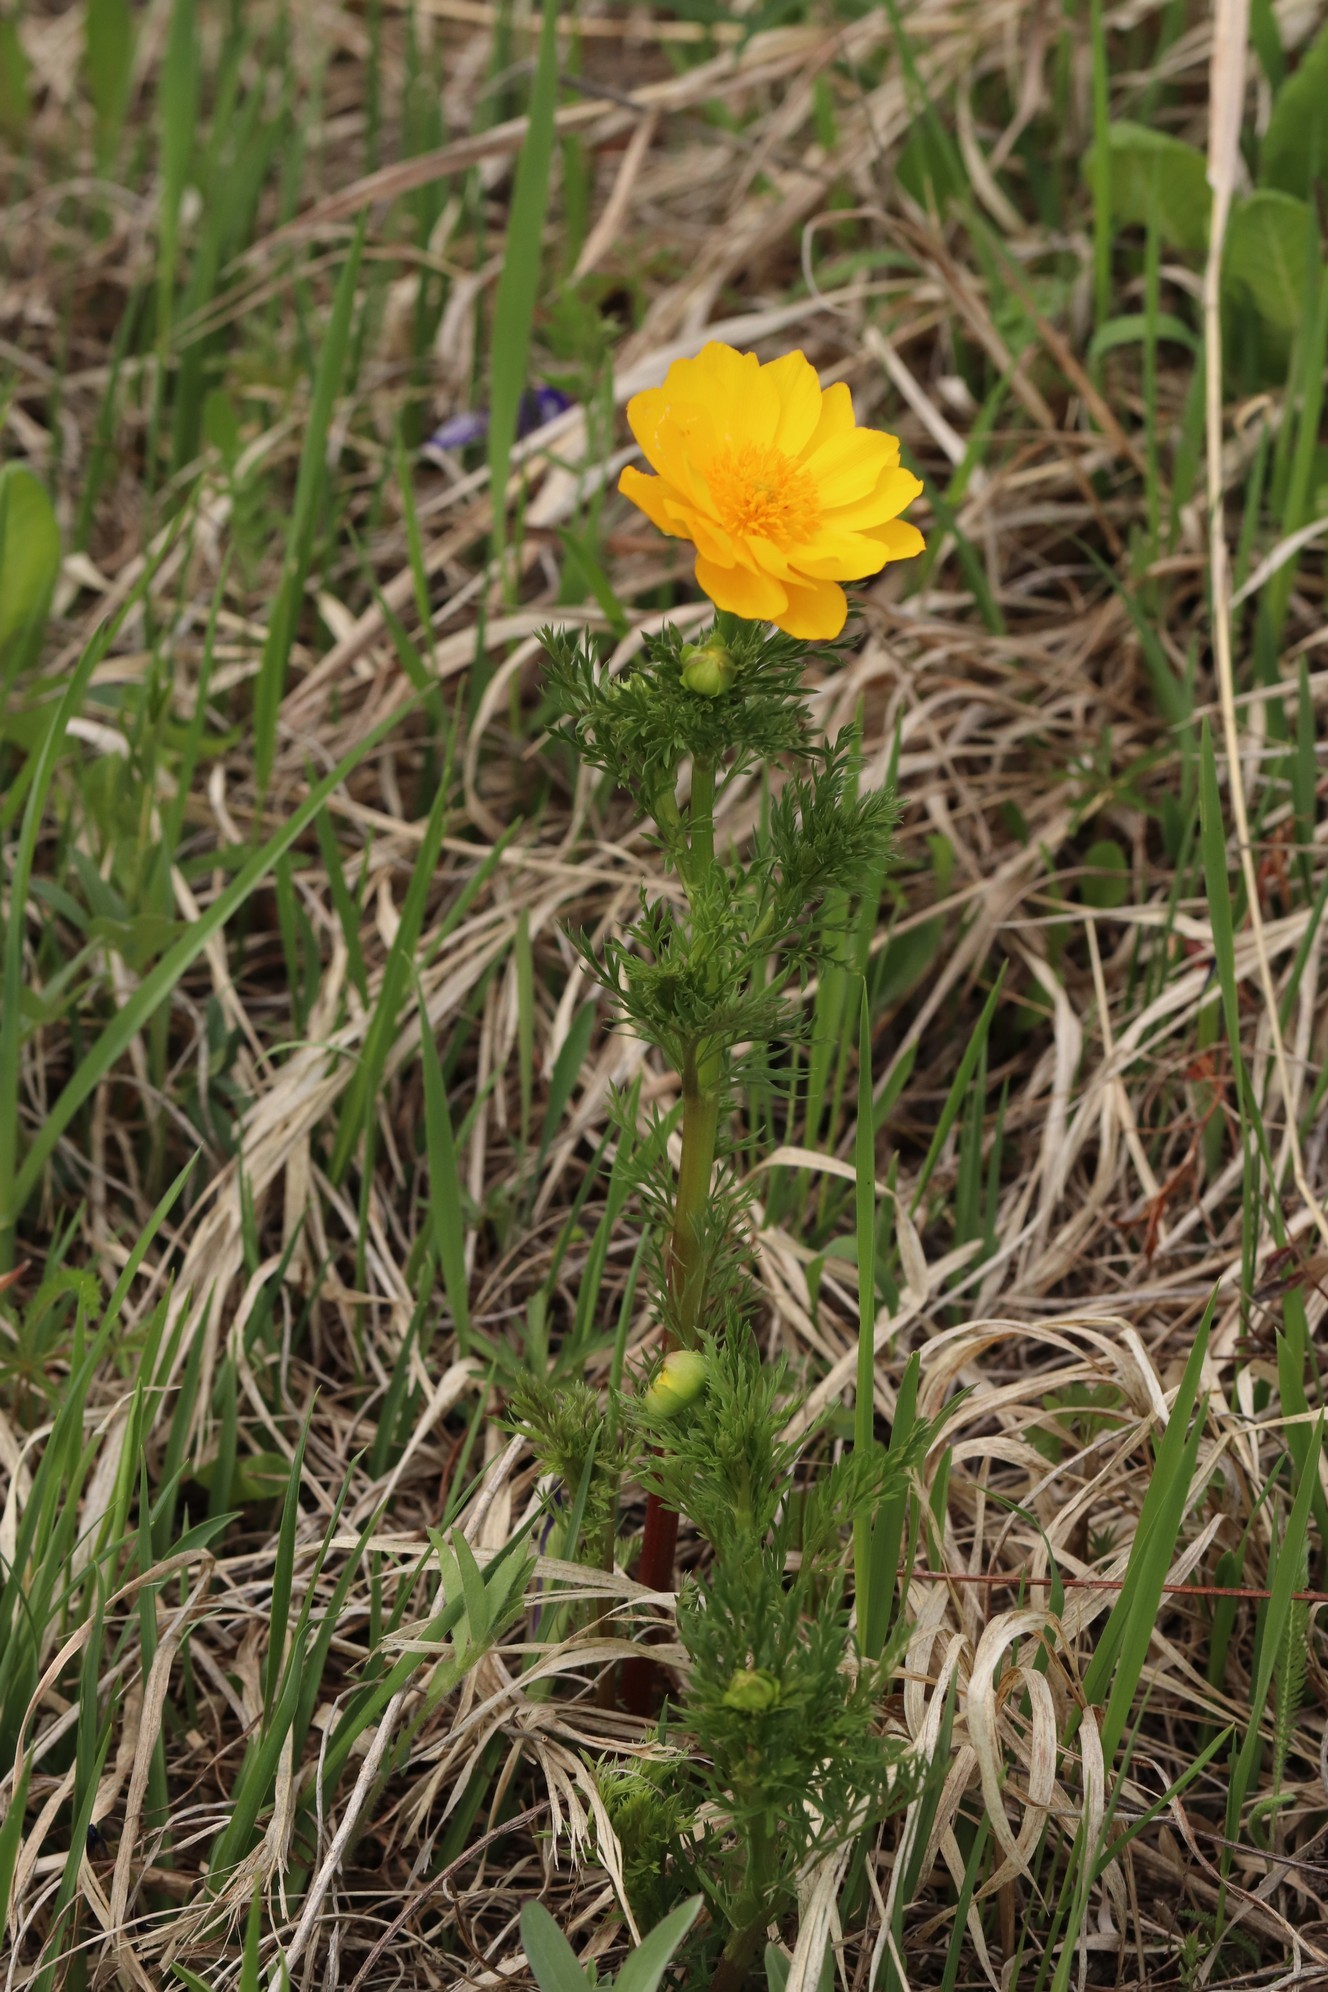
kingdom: Plantae
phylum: Tracheophyta
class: Magnoliopsida
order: Ranunculales
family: Ranunculaceae
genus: Adonis
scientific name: Adonis
